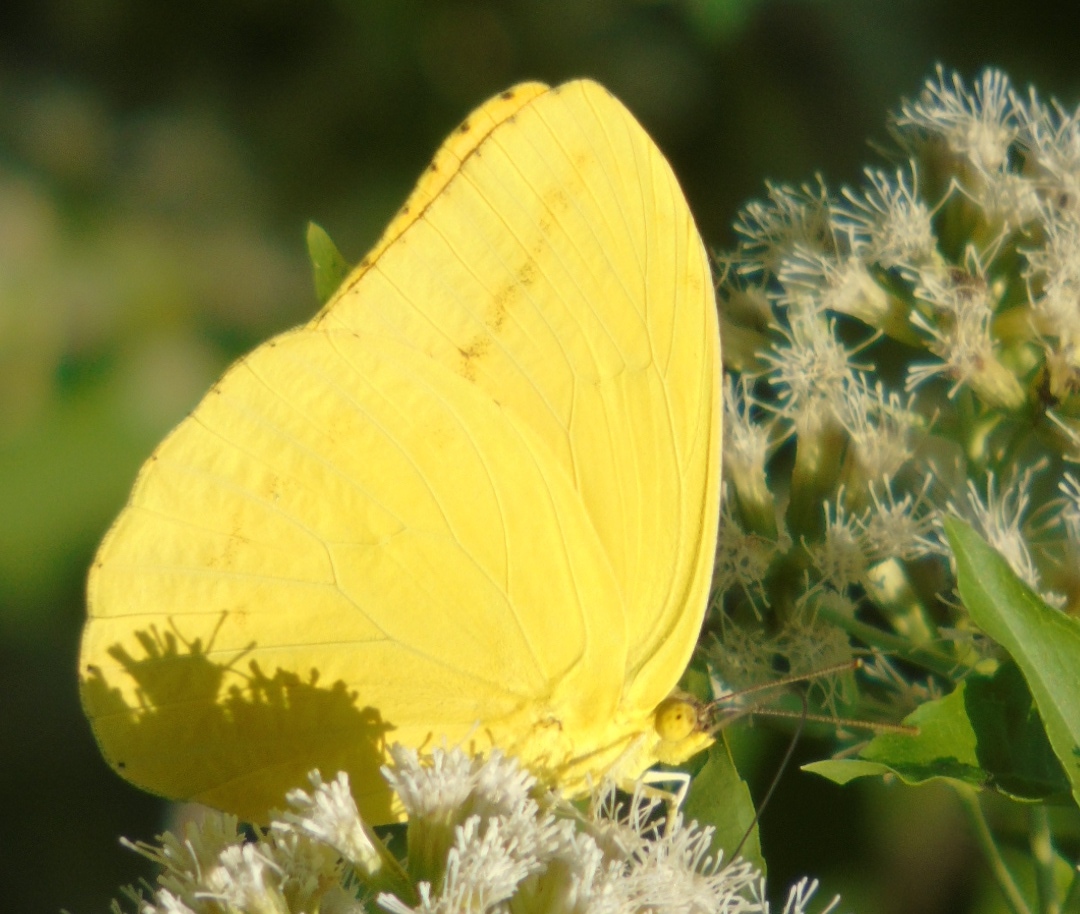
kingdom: Animalia
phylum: Arthropoda
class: Insecta
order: Lepidoptera
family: Pieridae
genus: Phoebis
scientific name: Phoebis agarithe
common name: Large orange sulphur
